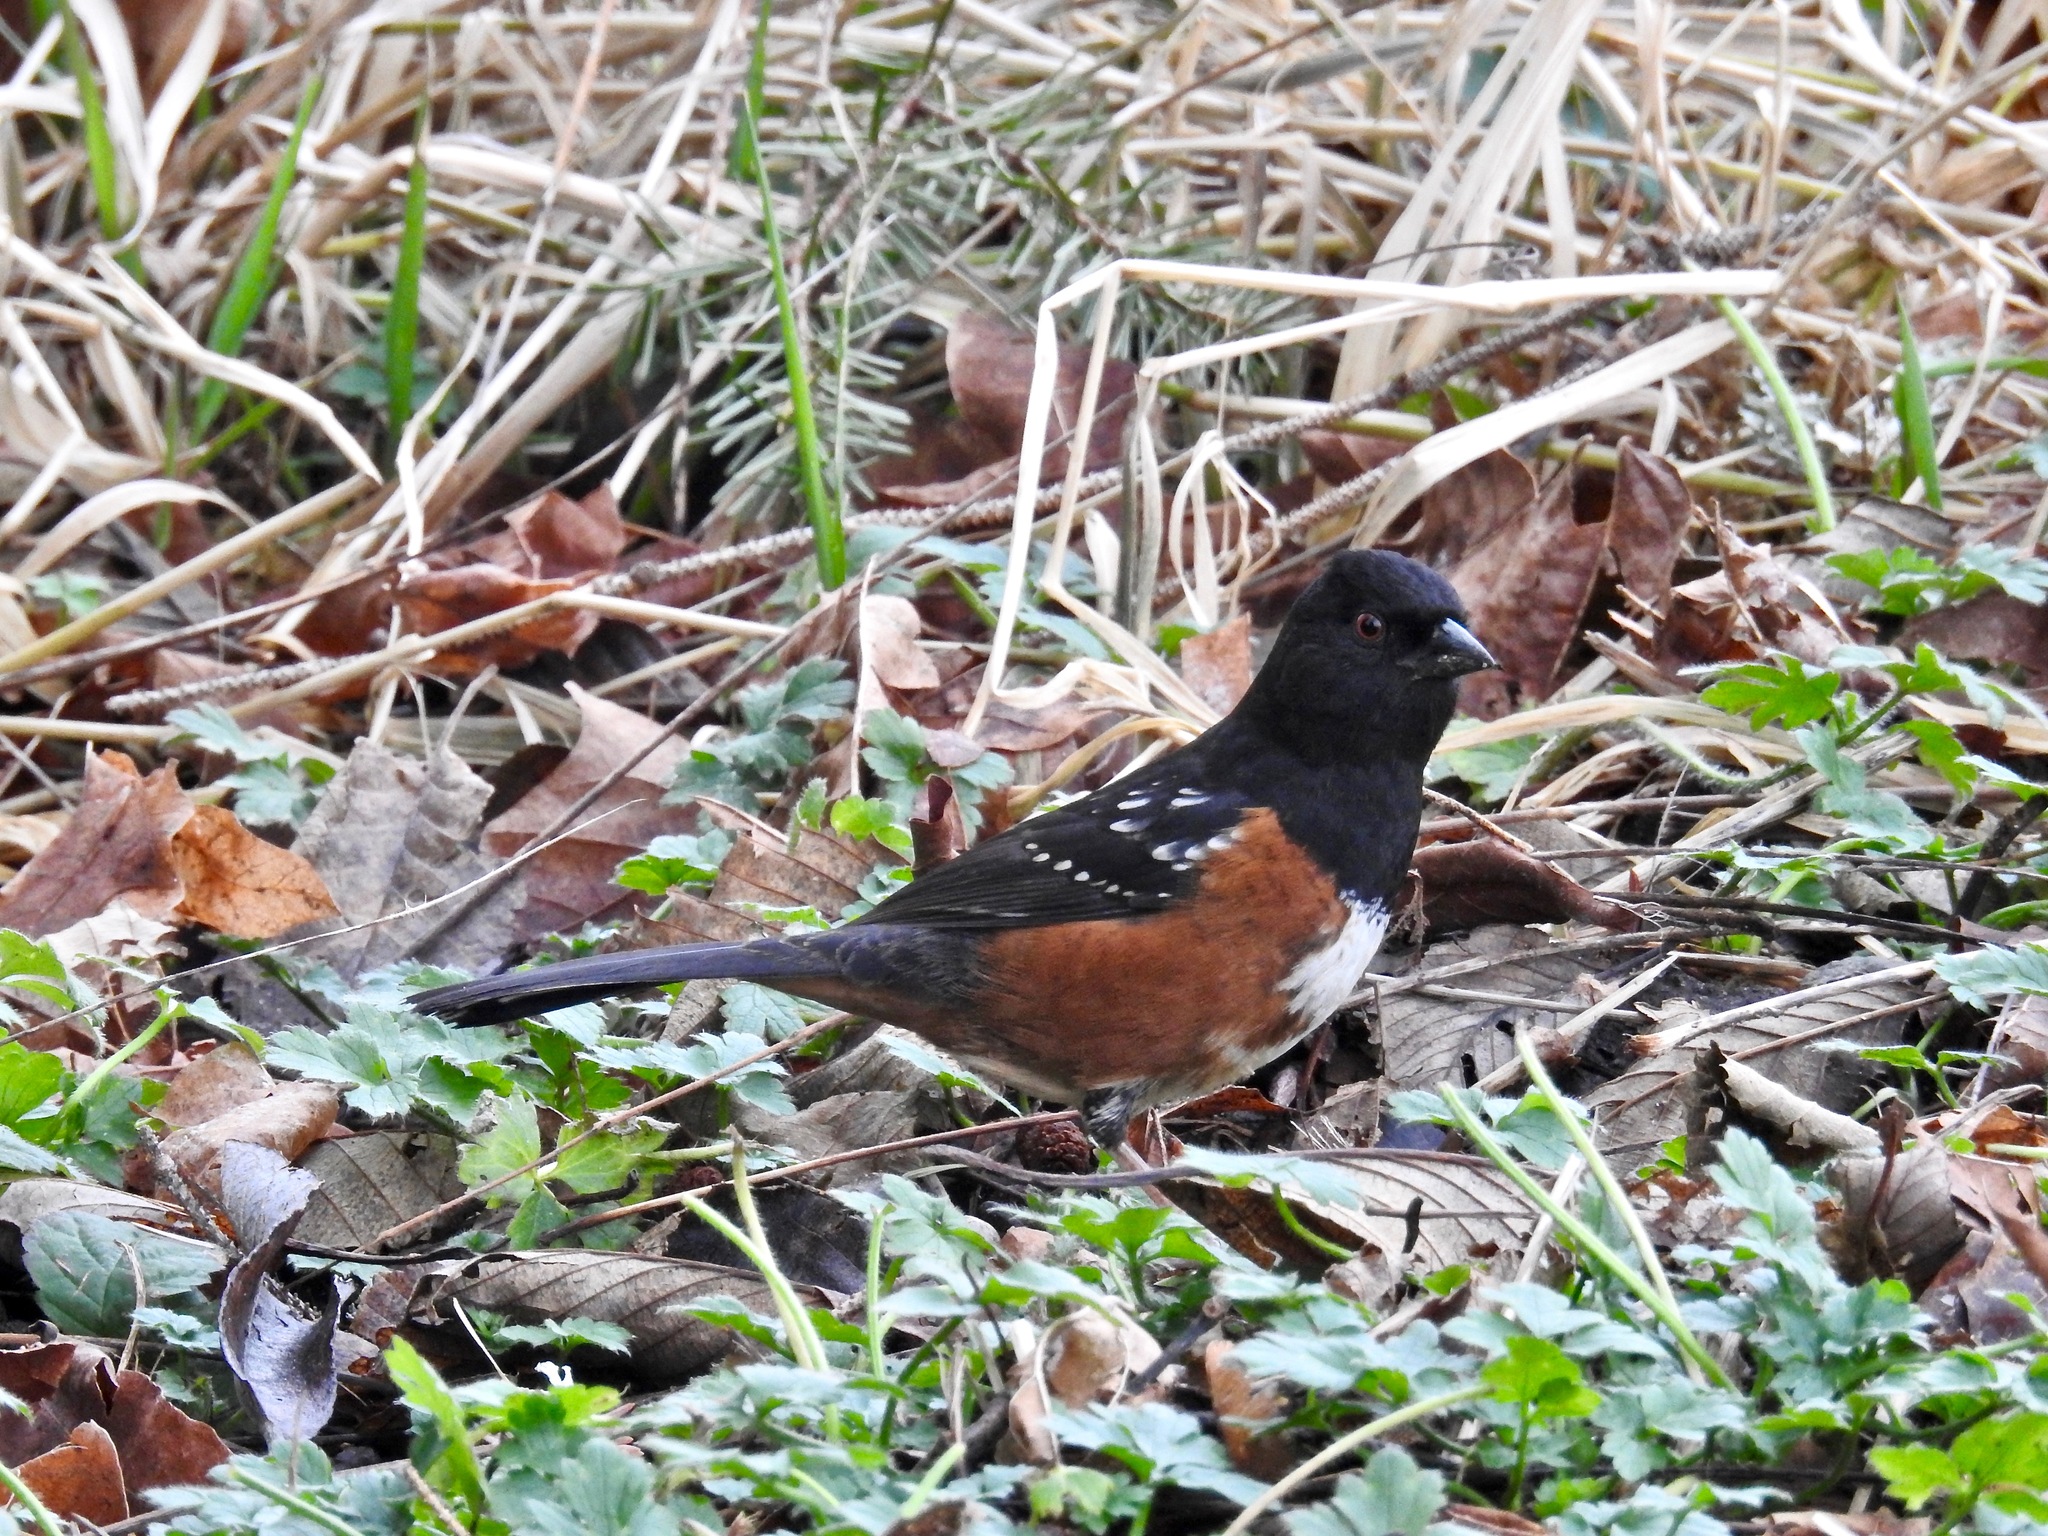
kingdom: Animalia
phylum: Chordata
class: Aves
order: Passeriformes
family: Passerellidae
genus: Pipilo
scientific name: Pipilo maculatus
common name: Spotted towhee
